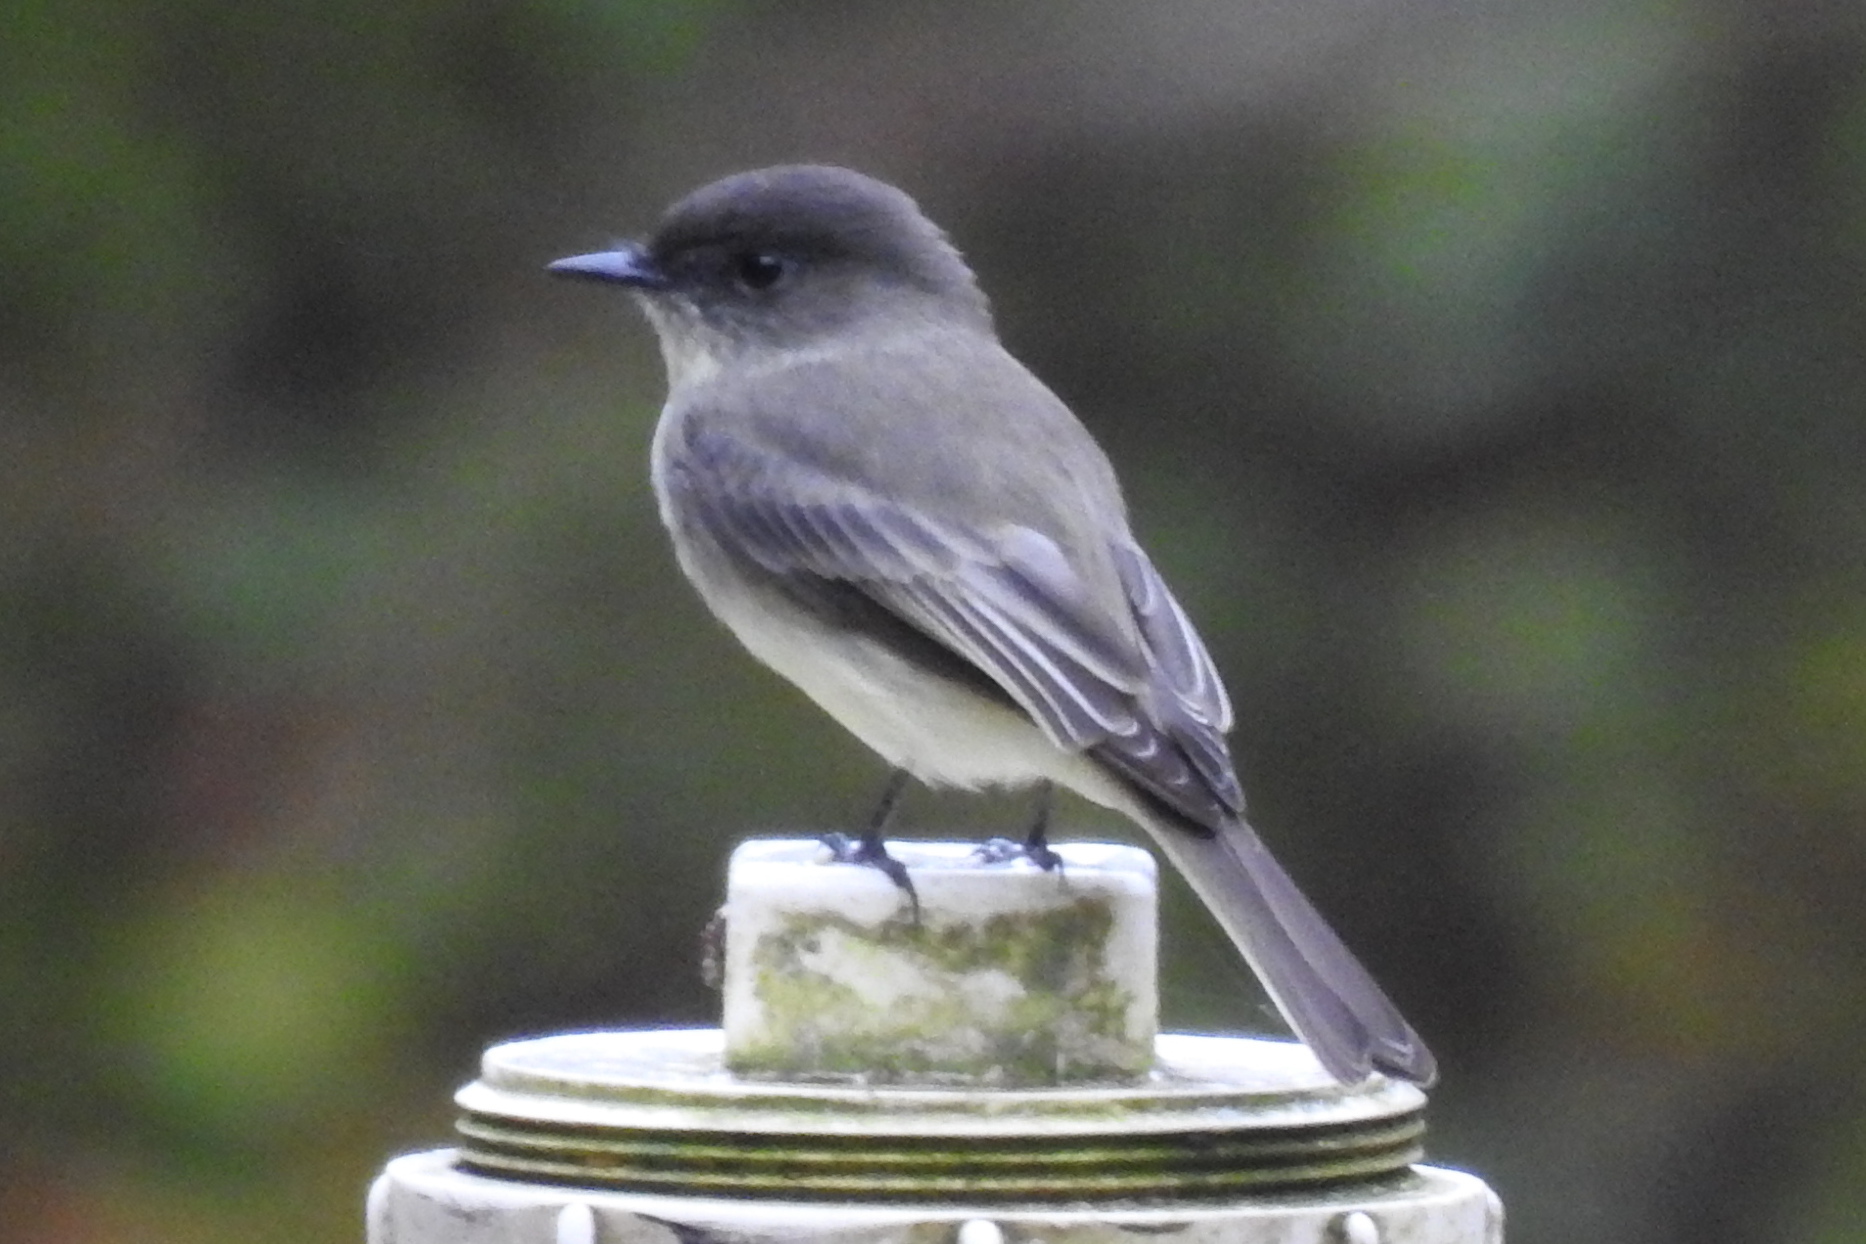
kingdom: Animalia
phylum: Chordata
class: Aves
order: Passeriformes
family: Tyrannidae
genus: Sayornis
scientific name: Sayornis phoebe
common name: Eastern phoebe
